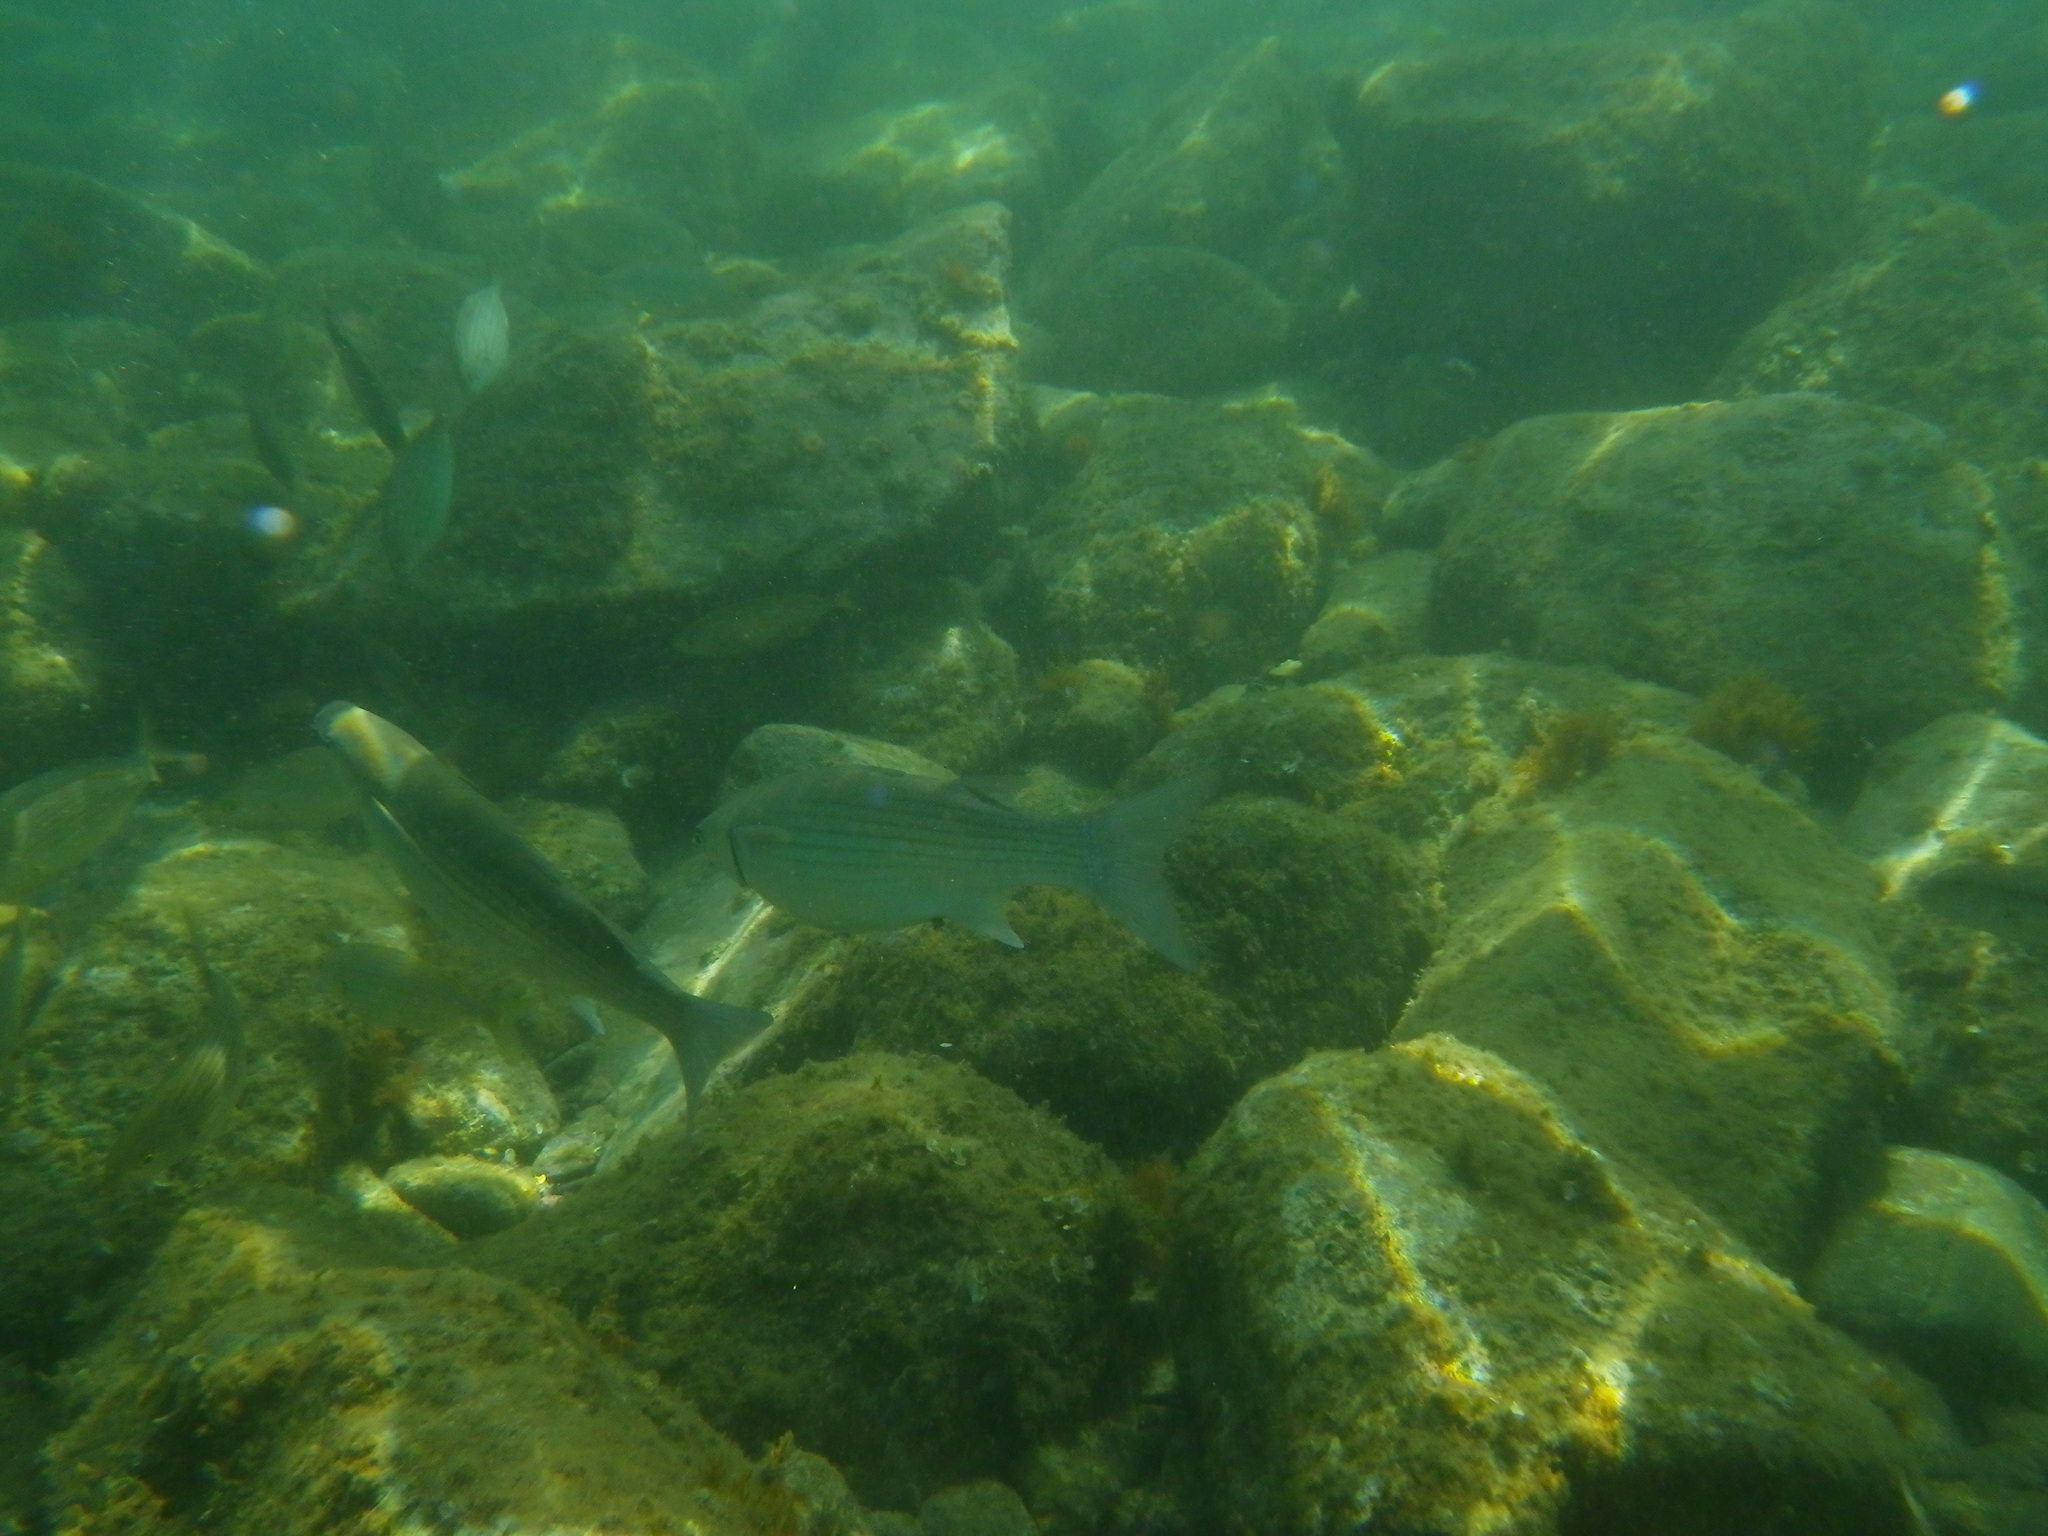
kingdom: Animalia
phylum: Chordata
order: Mugiliformes
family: Mugilidae
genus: Chelon
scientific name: Chelon labrosus
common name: Thick-lipped mullet
